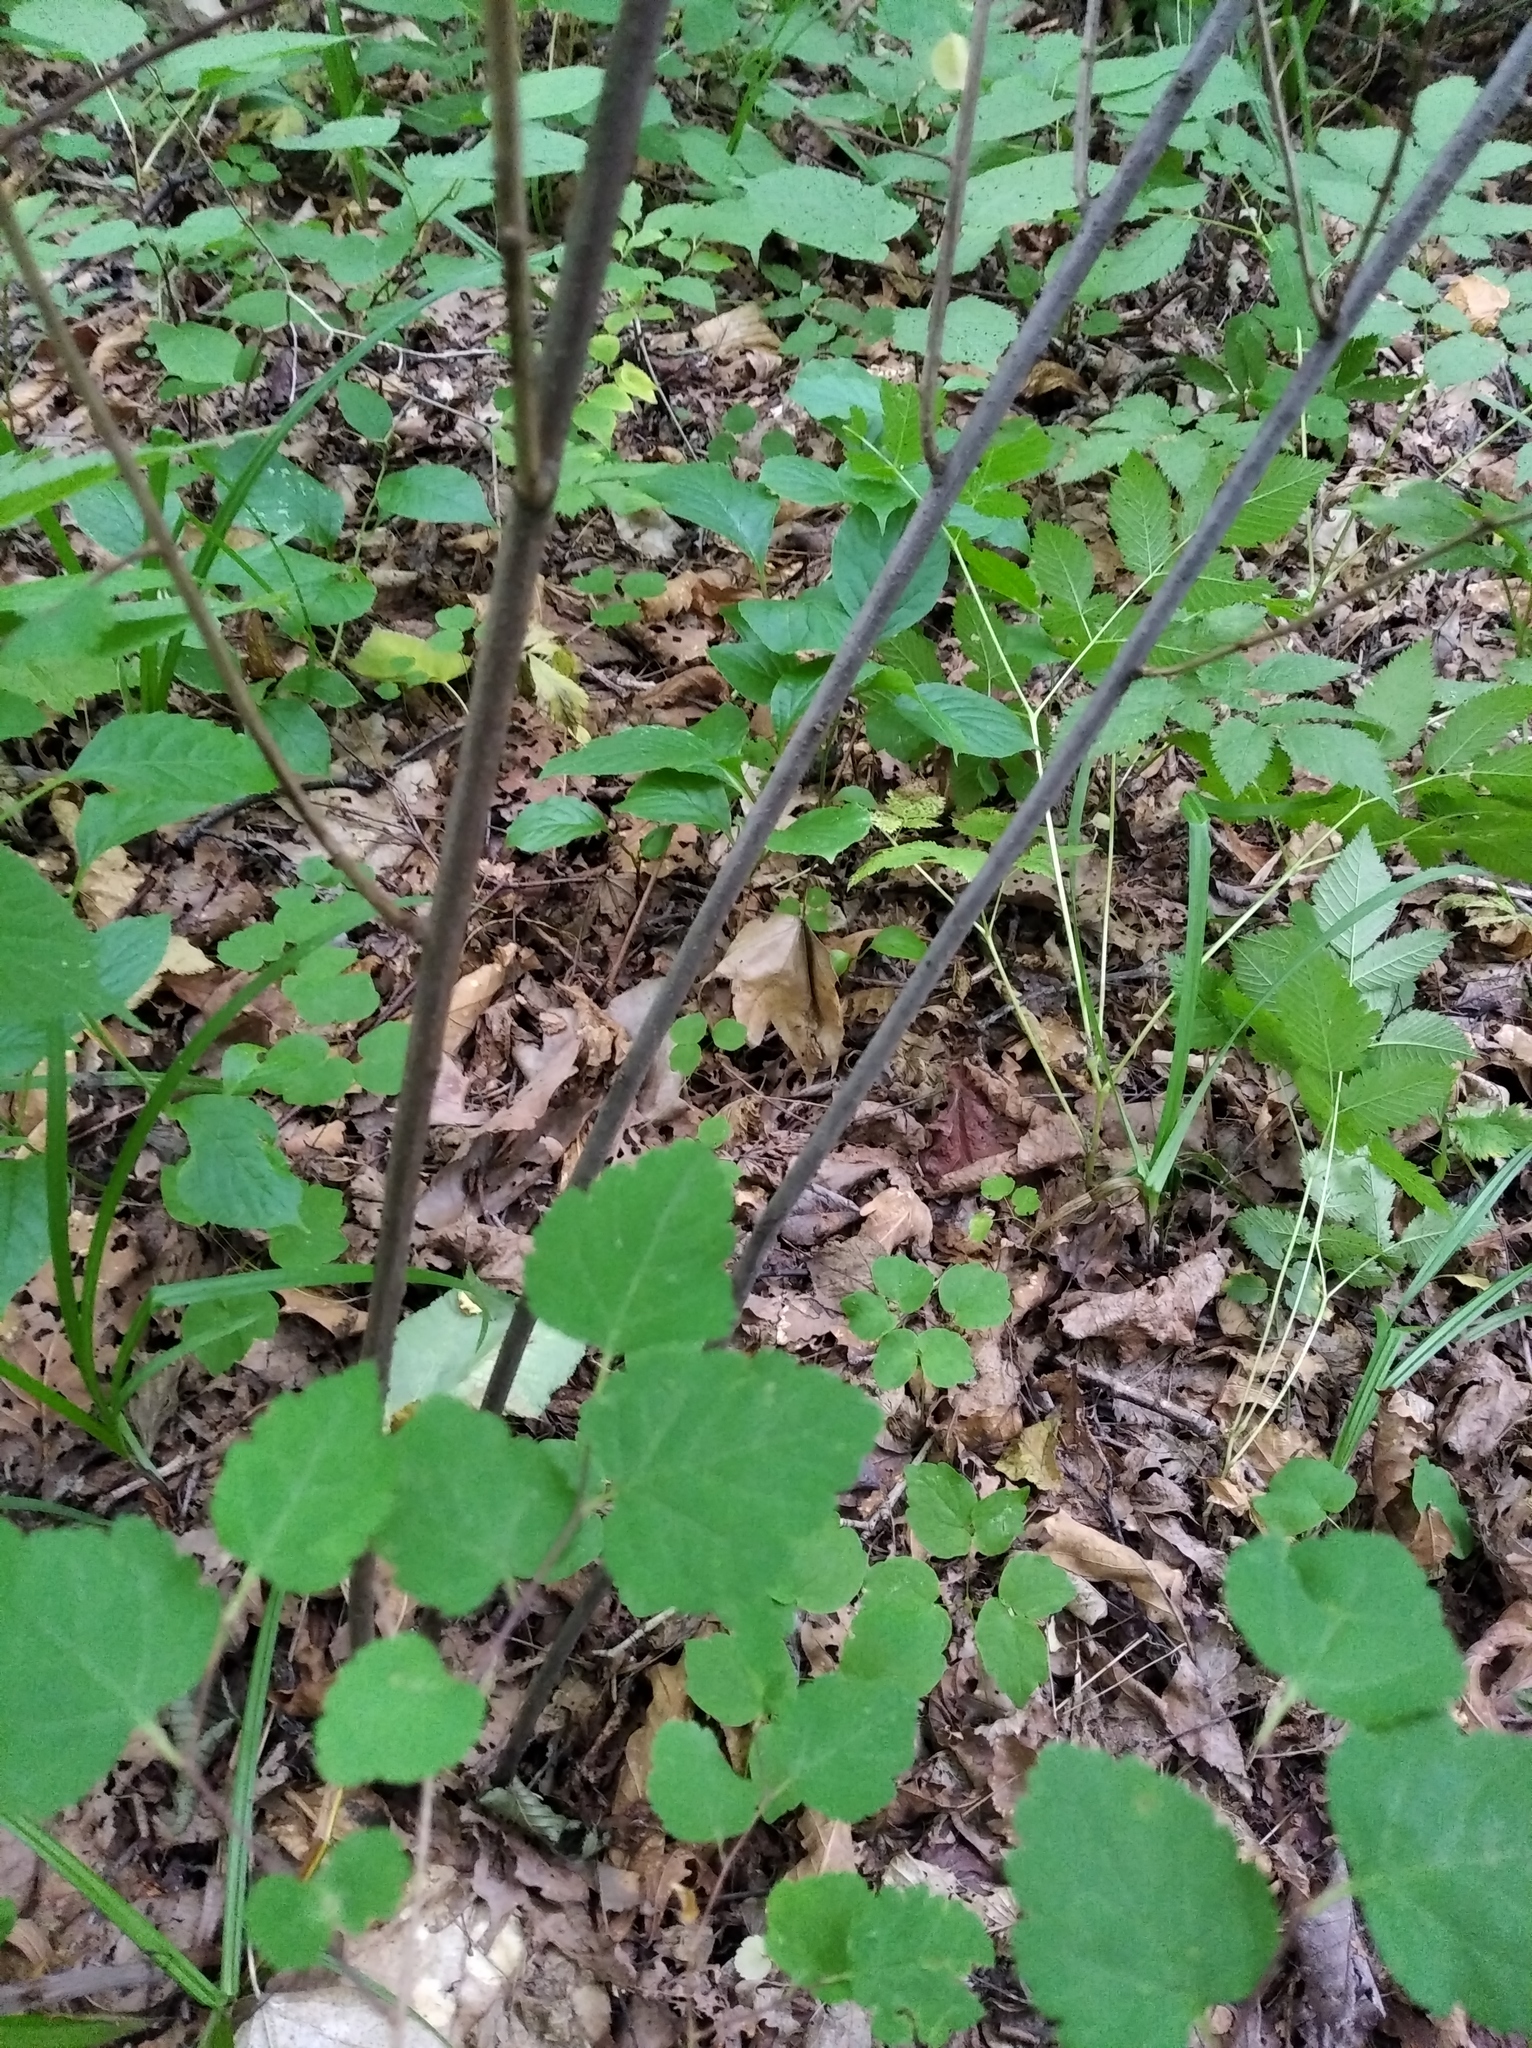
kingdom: Plantae
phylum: Tracheophyta
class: Magnoliopsida
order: Rosales
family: Rosaceae
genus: Spiraea
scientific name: Spiraea chamaedryfolia
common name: Elm-leaved spiraea
